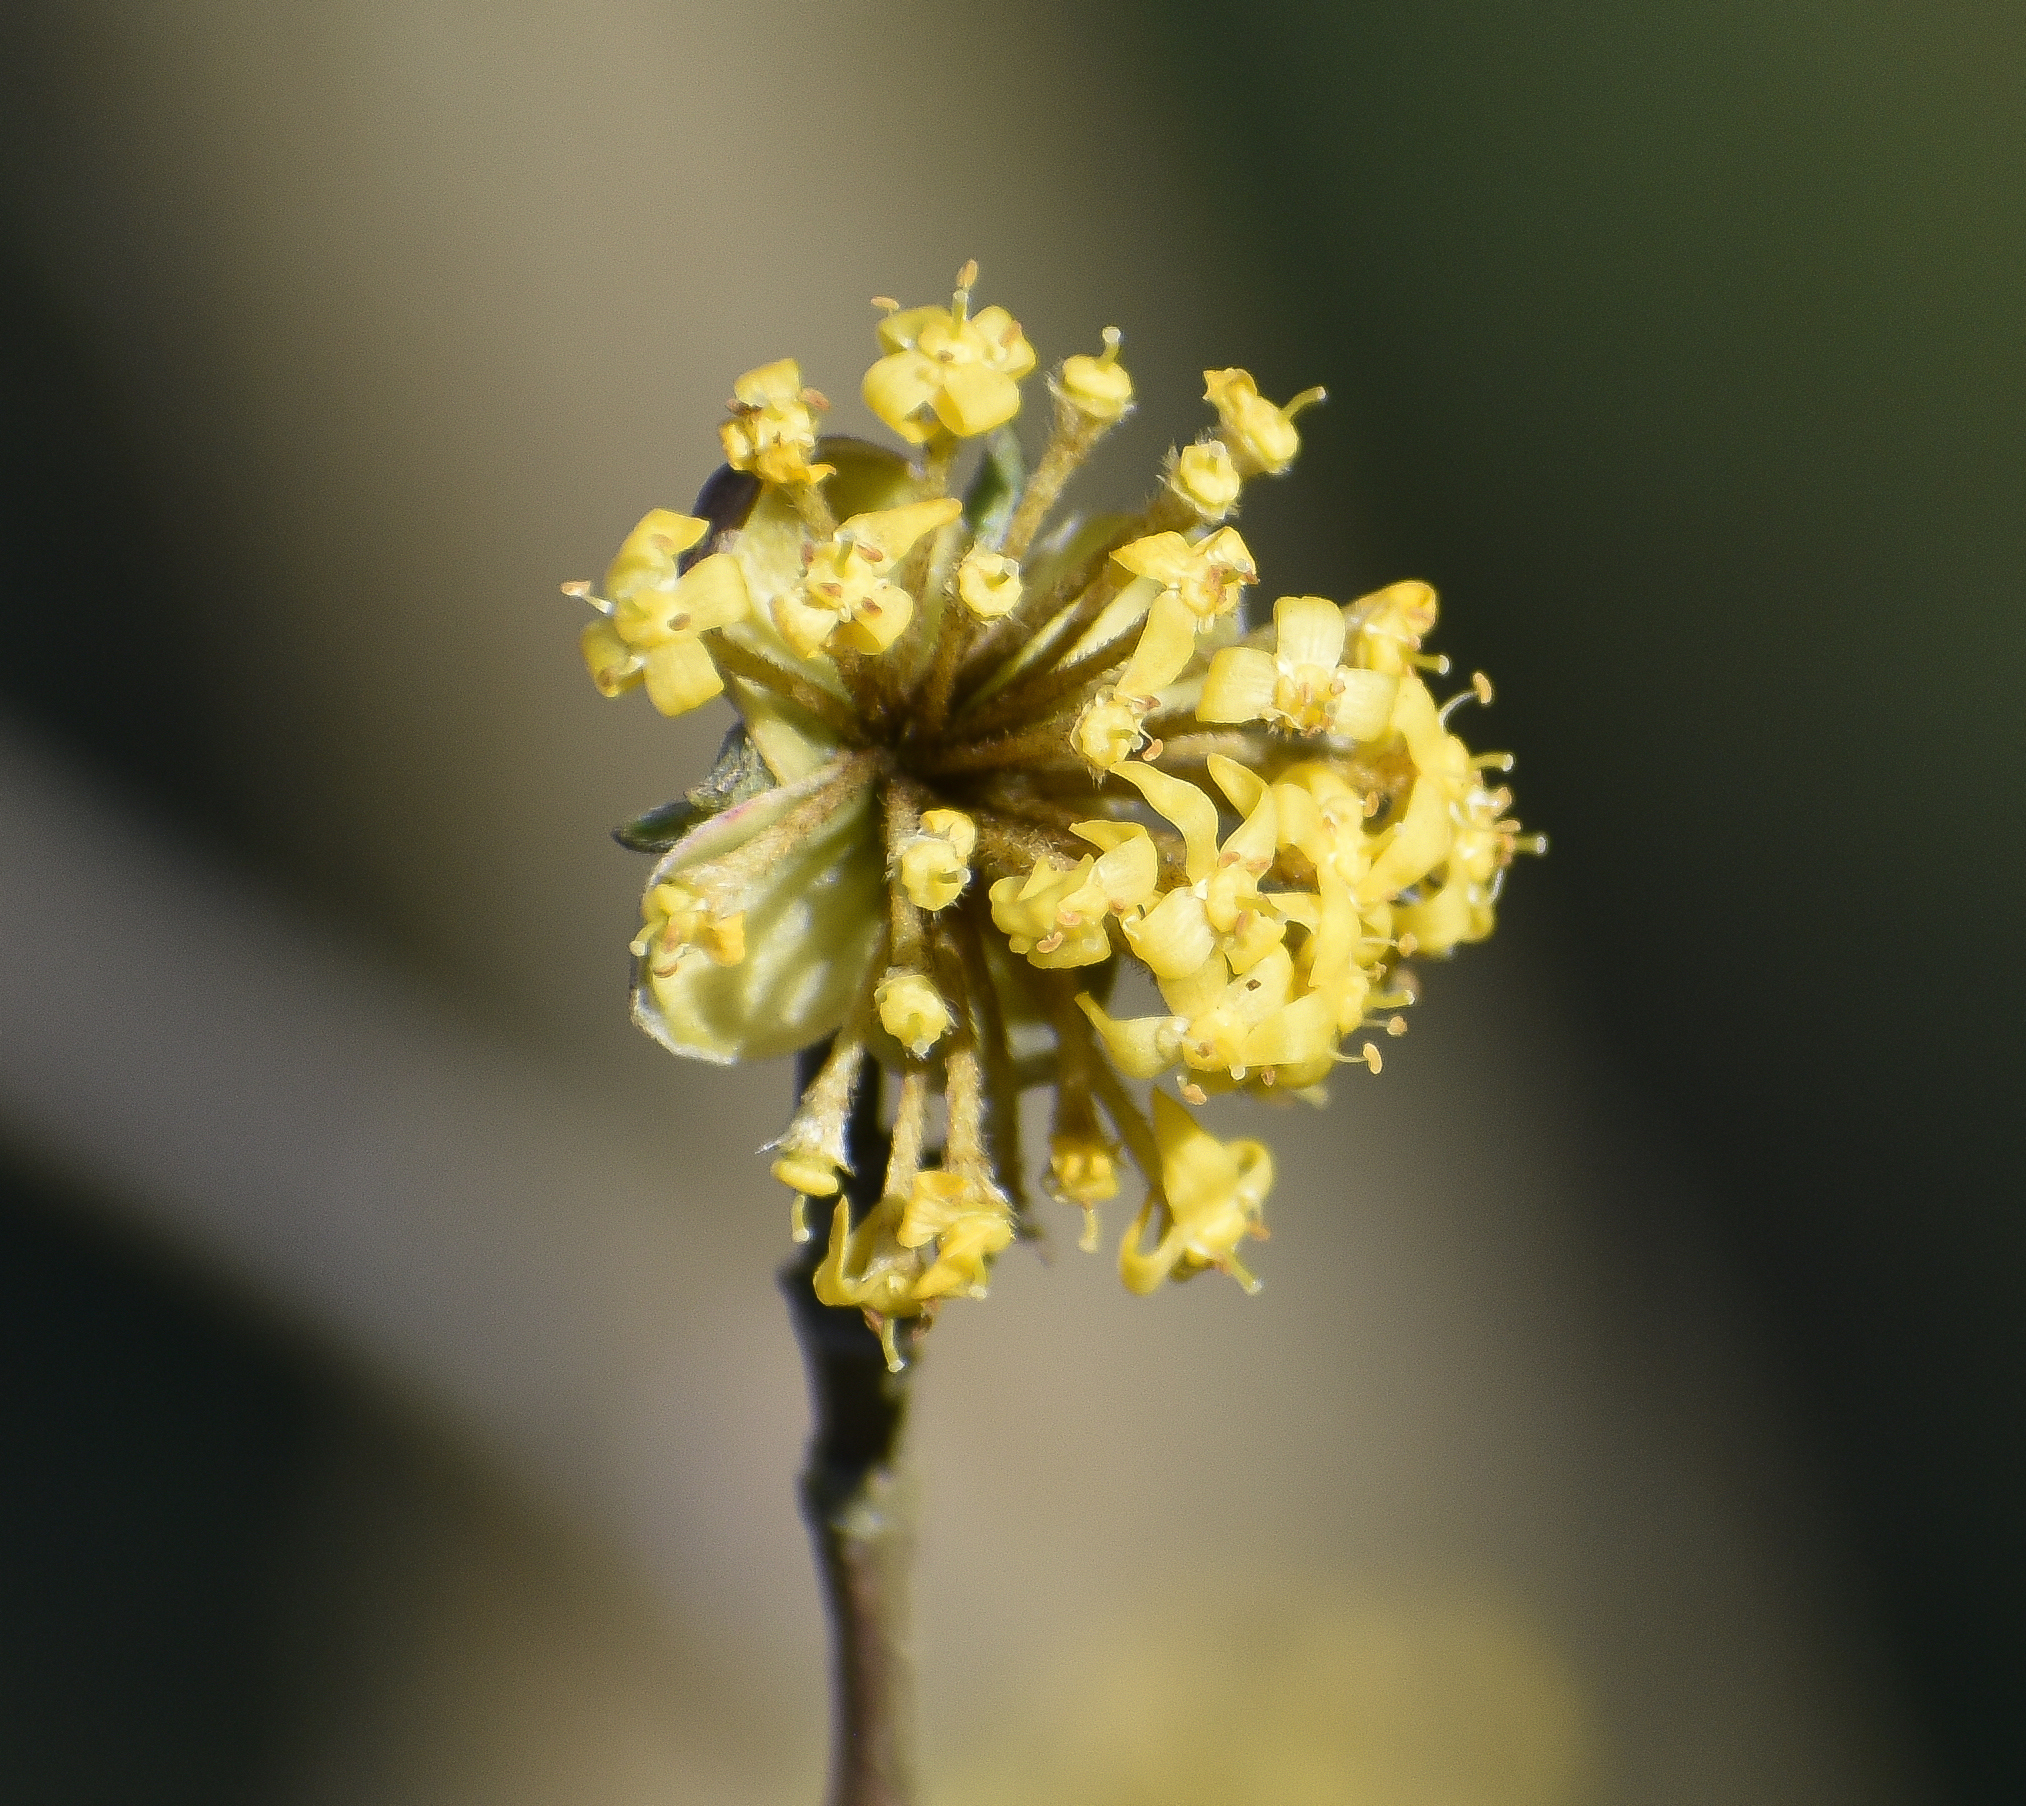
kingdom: Plantae
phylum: Tracheophyta
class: Magnoliopsida
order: Cornales
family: Cornaceae
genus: Cornus
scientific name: Cornus mas
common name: Cornelian-cherry
